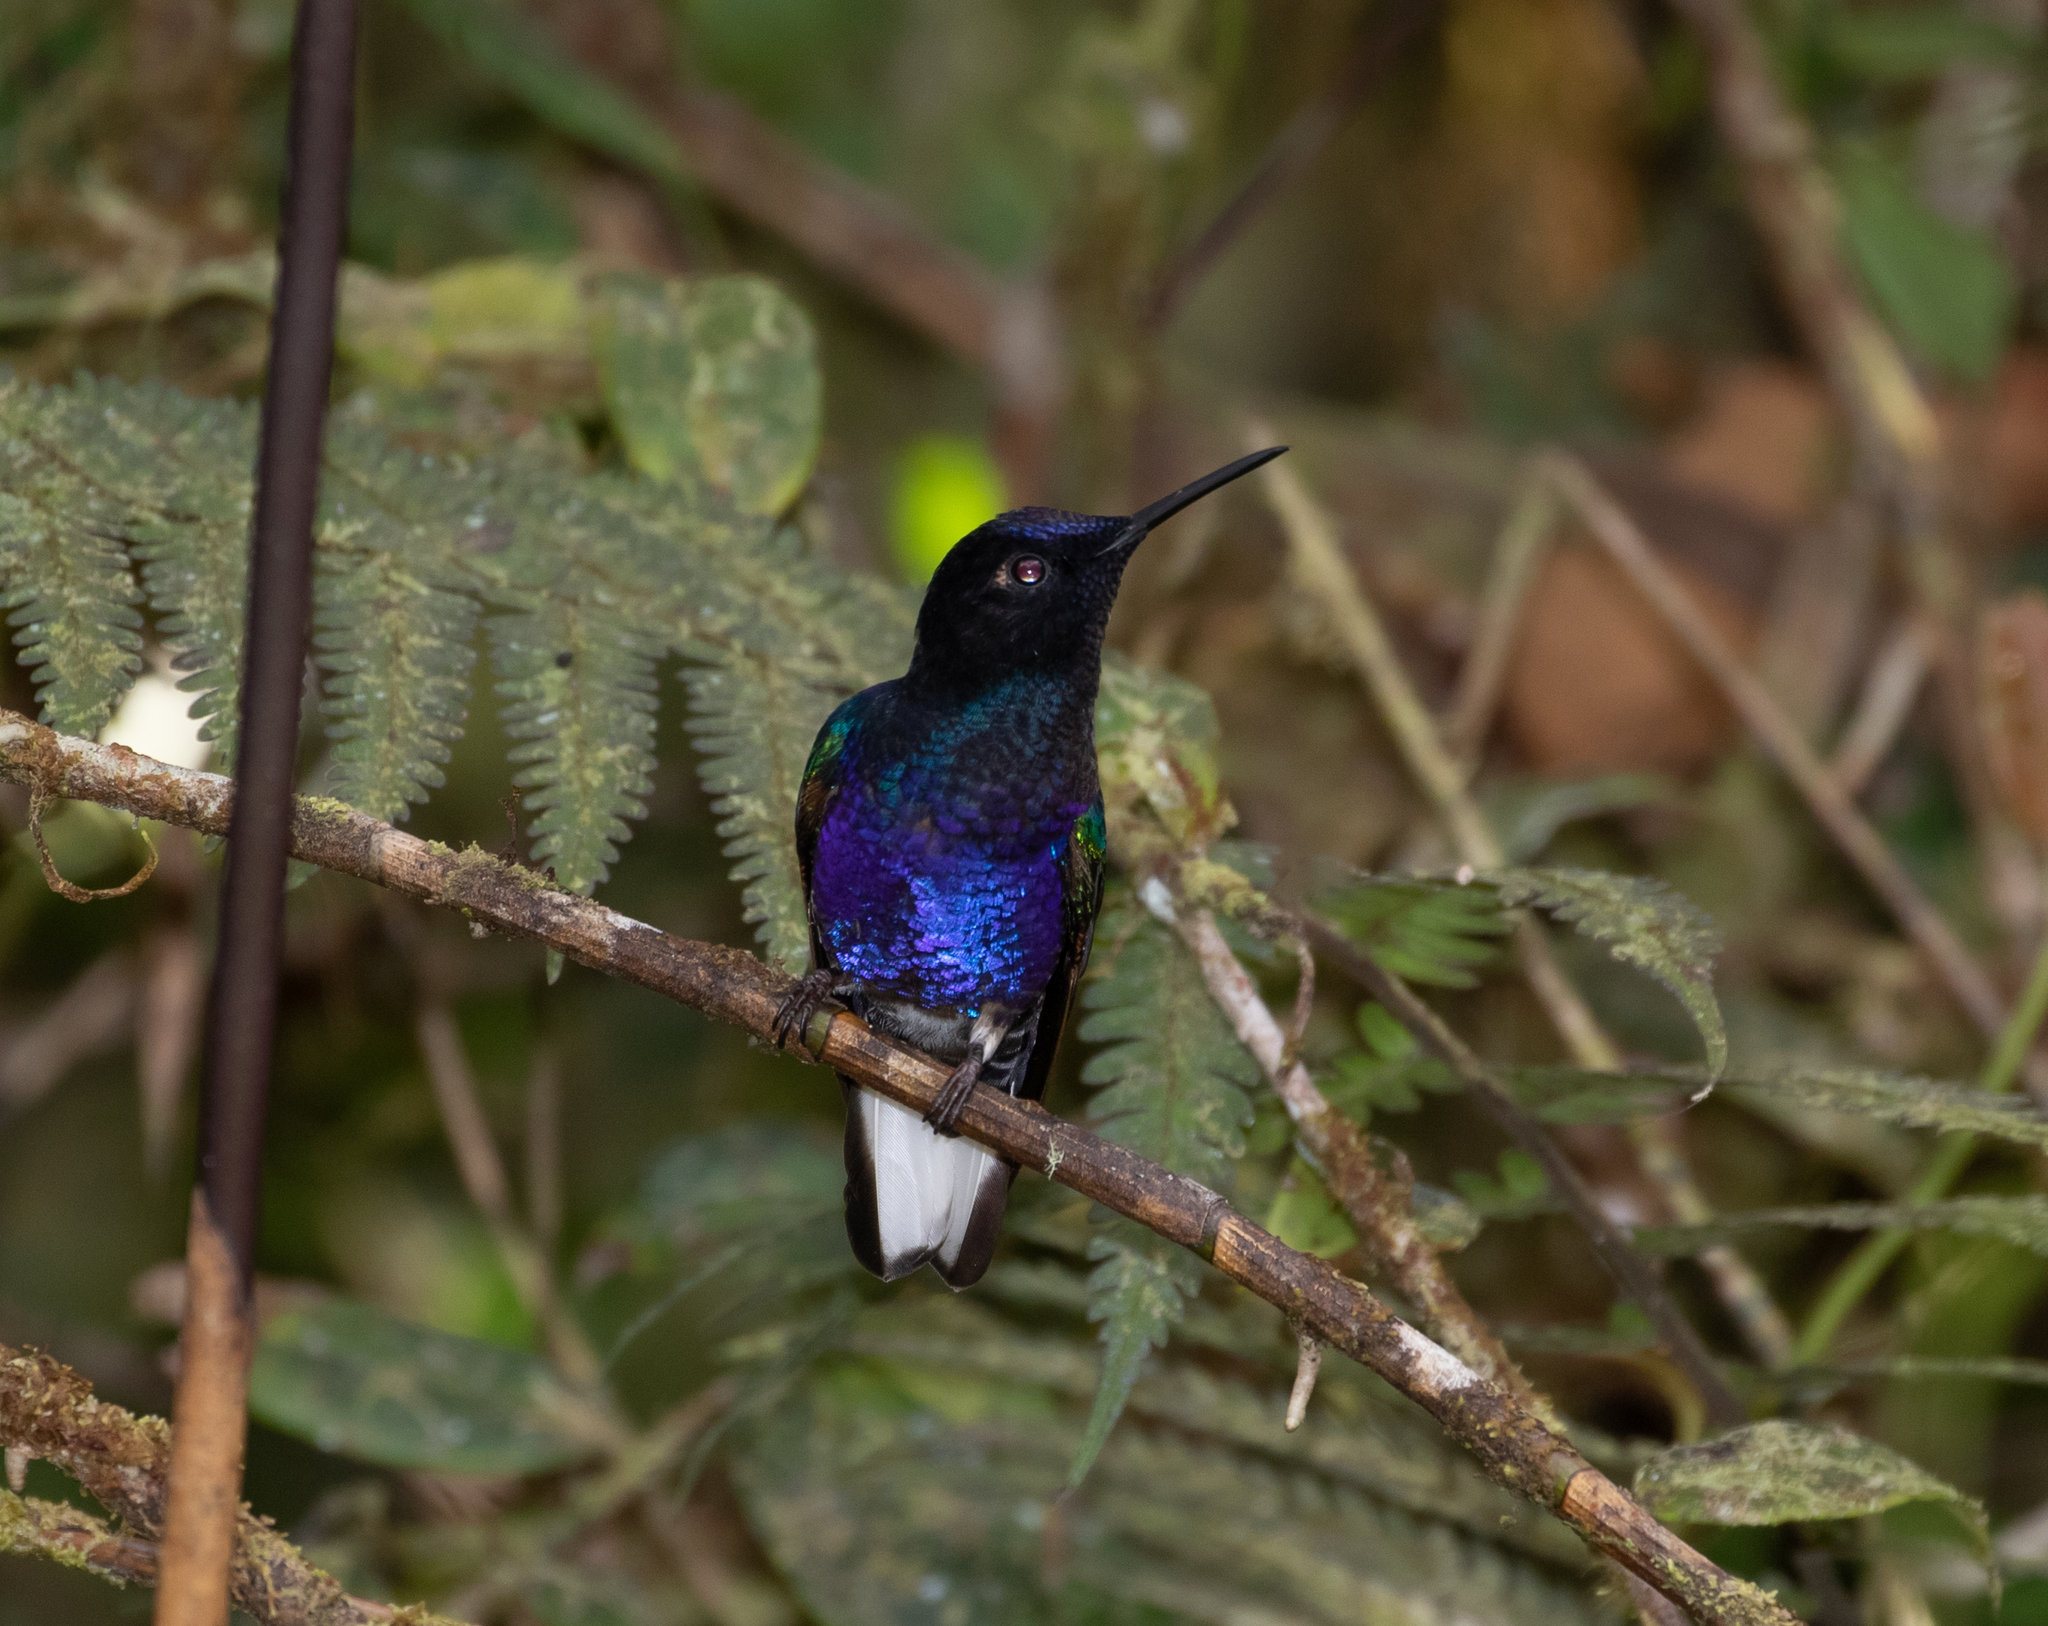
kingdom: Animalia
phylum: Chordata
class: Aves
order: Apodiformes
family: Trochilidae
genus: Boissonneaua
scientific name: Boissonneaua jardini
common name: Velvet-purple coronet
